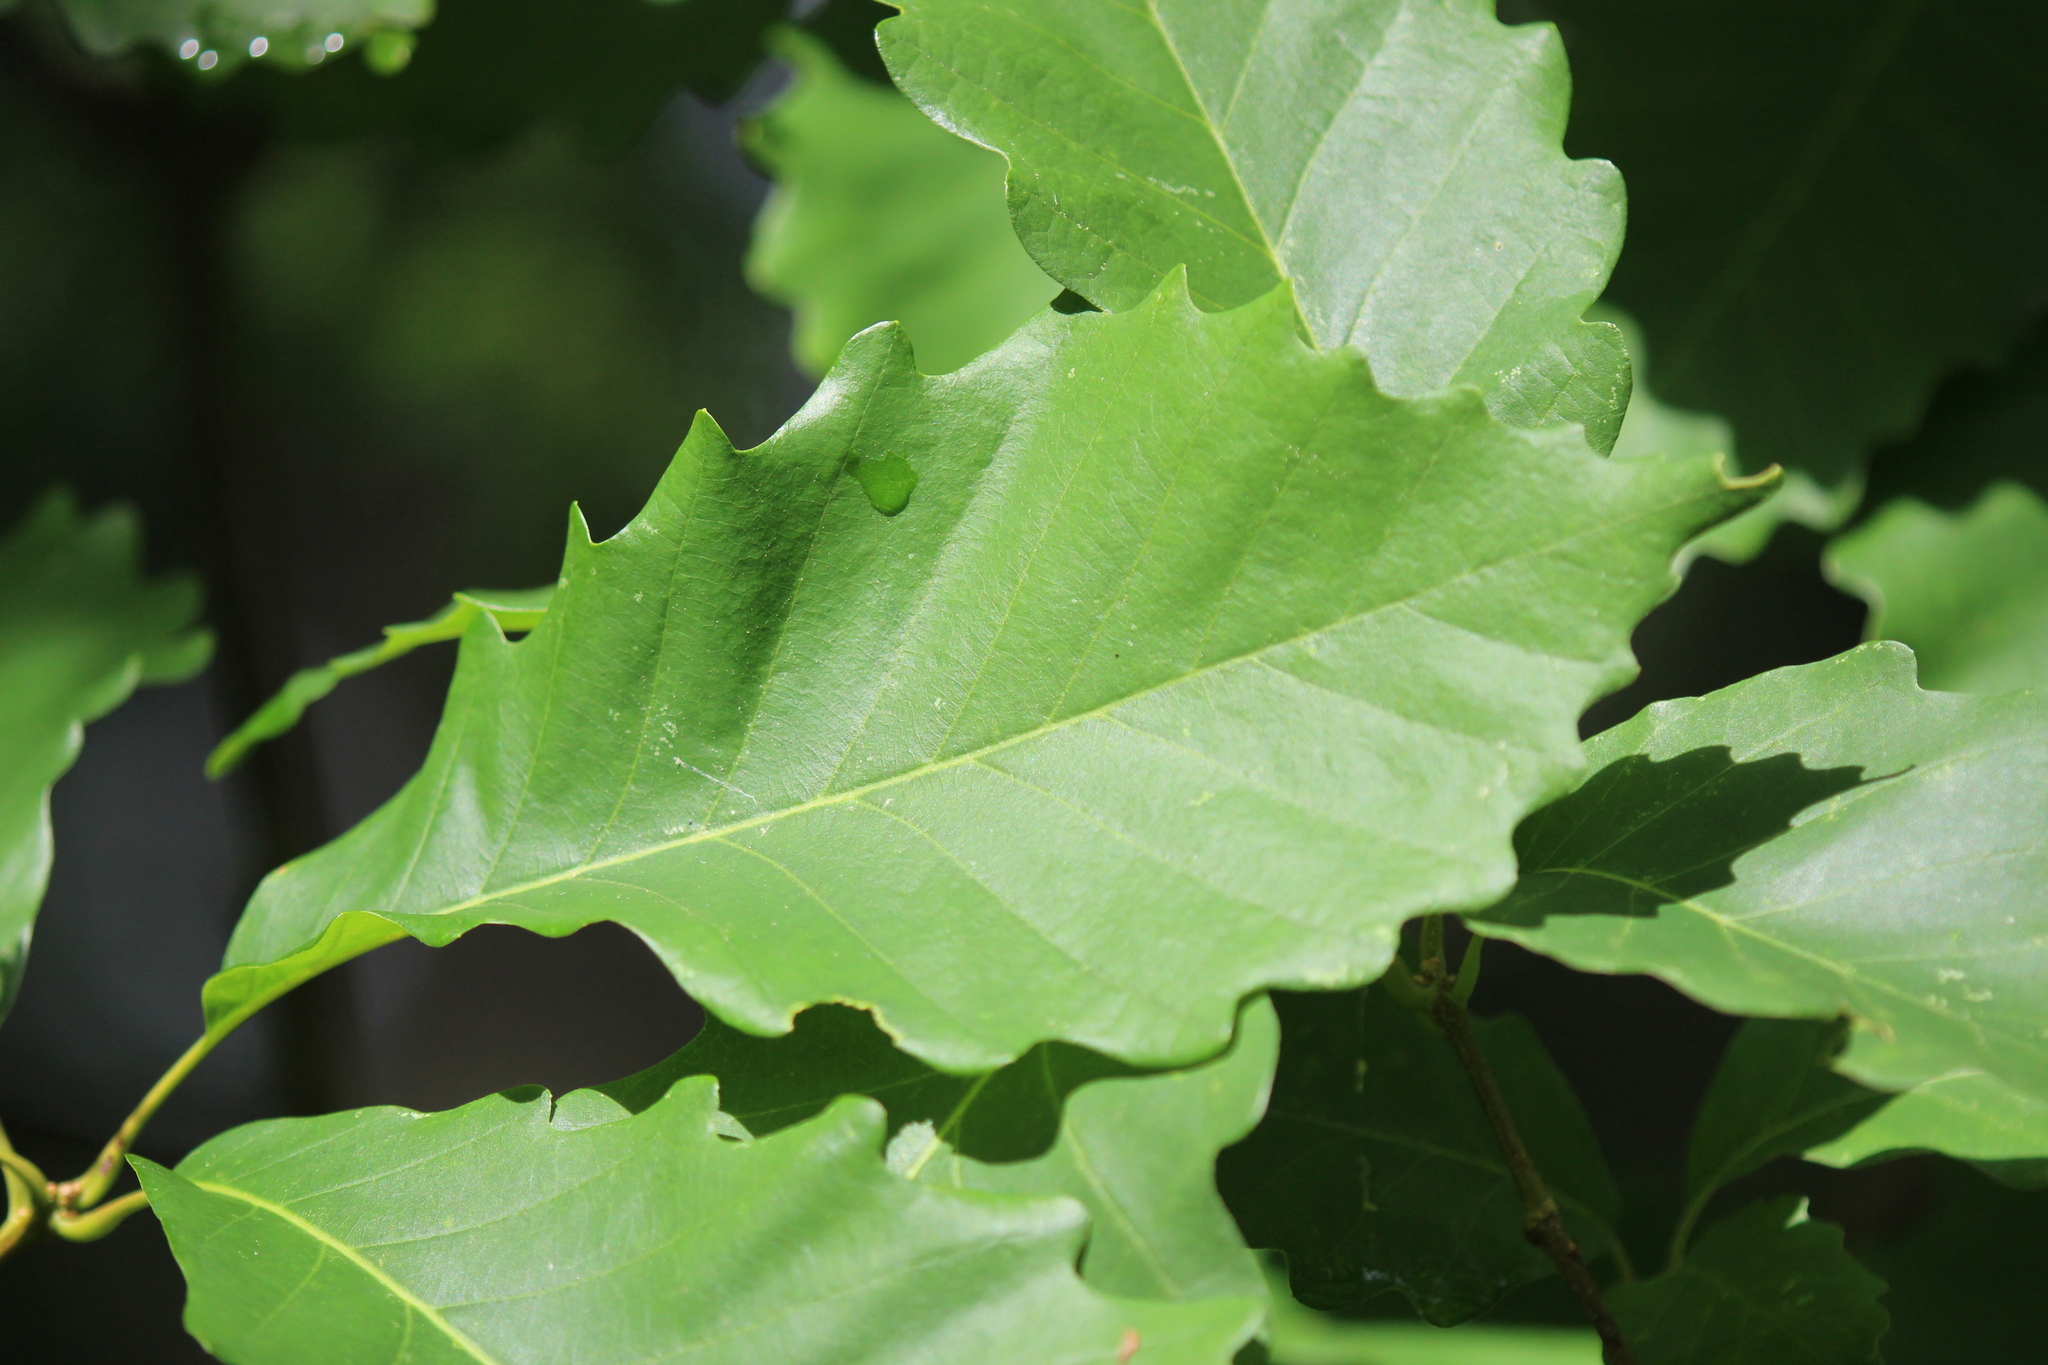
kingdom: Plantae
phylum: Tracheophyta
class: Magnoliopsida
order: Fagales
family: Fagaceae
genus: Quercus
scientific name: Quercus montana
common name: Chestnut oak
